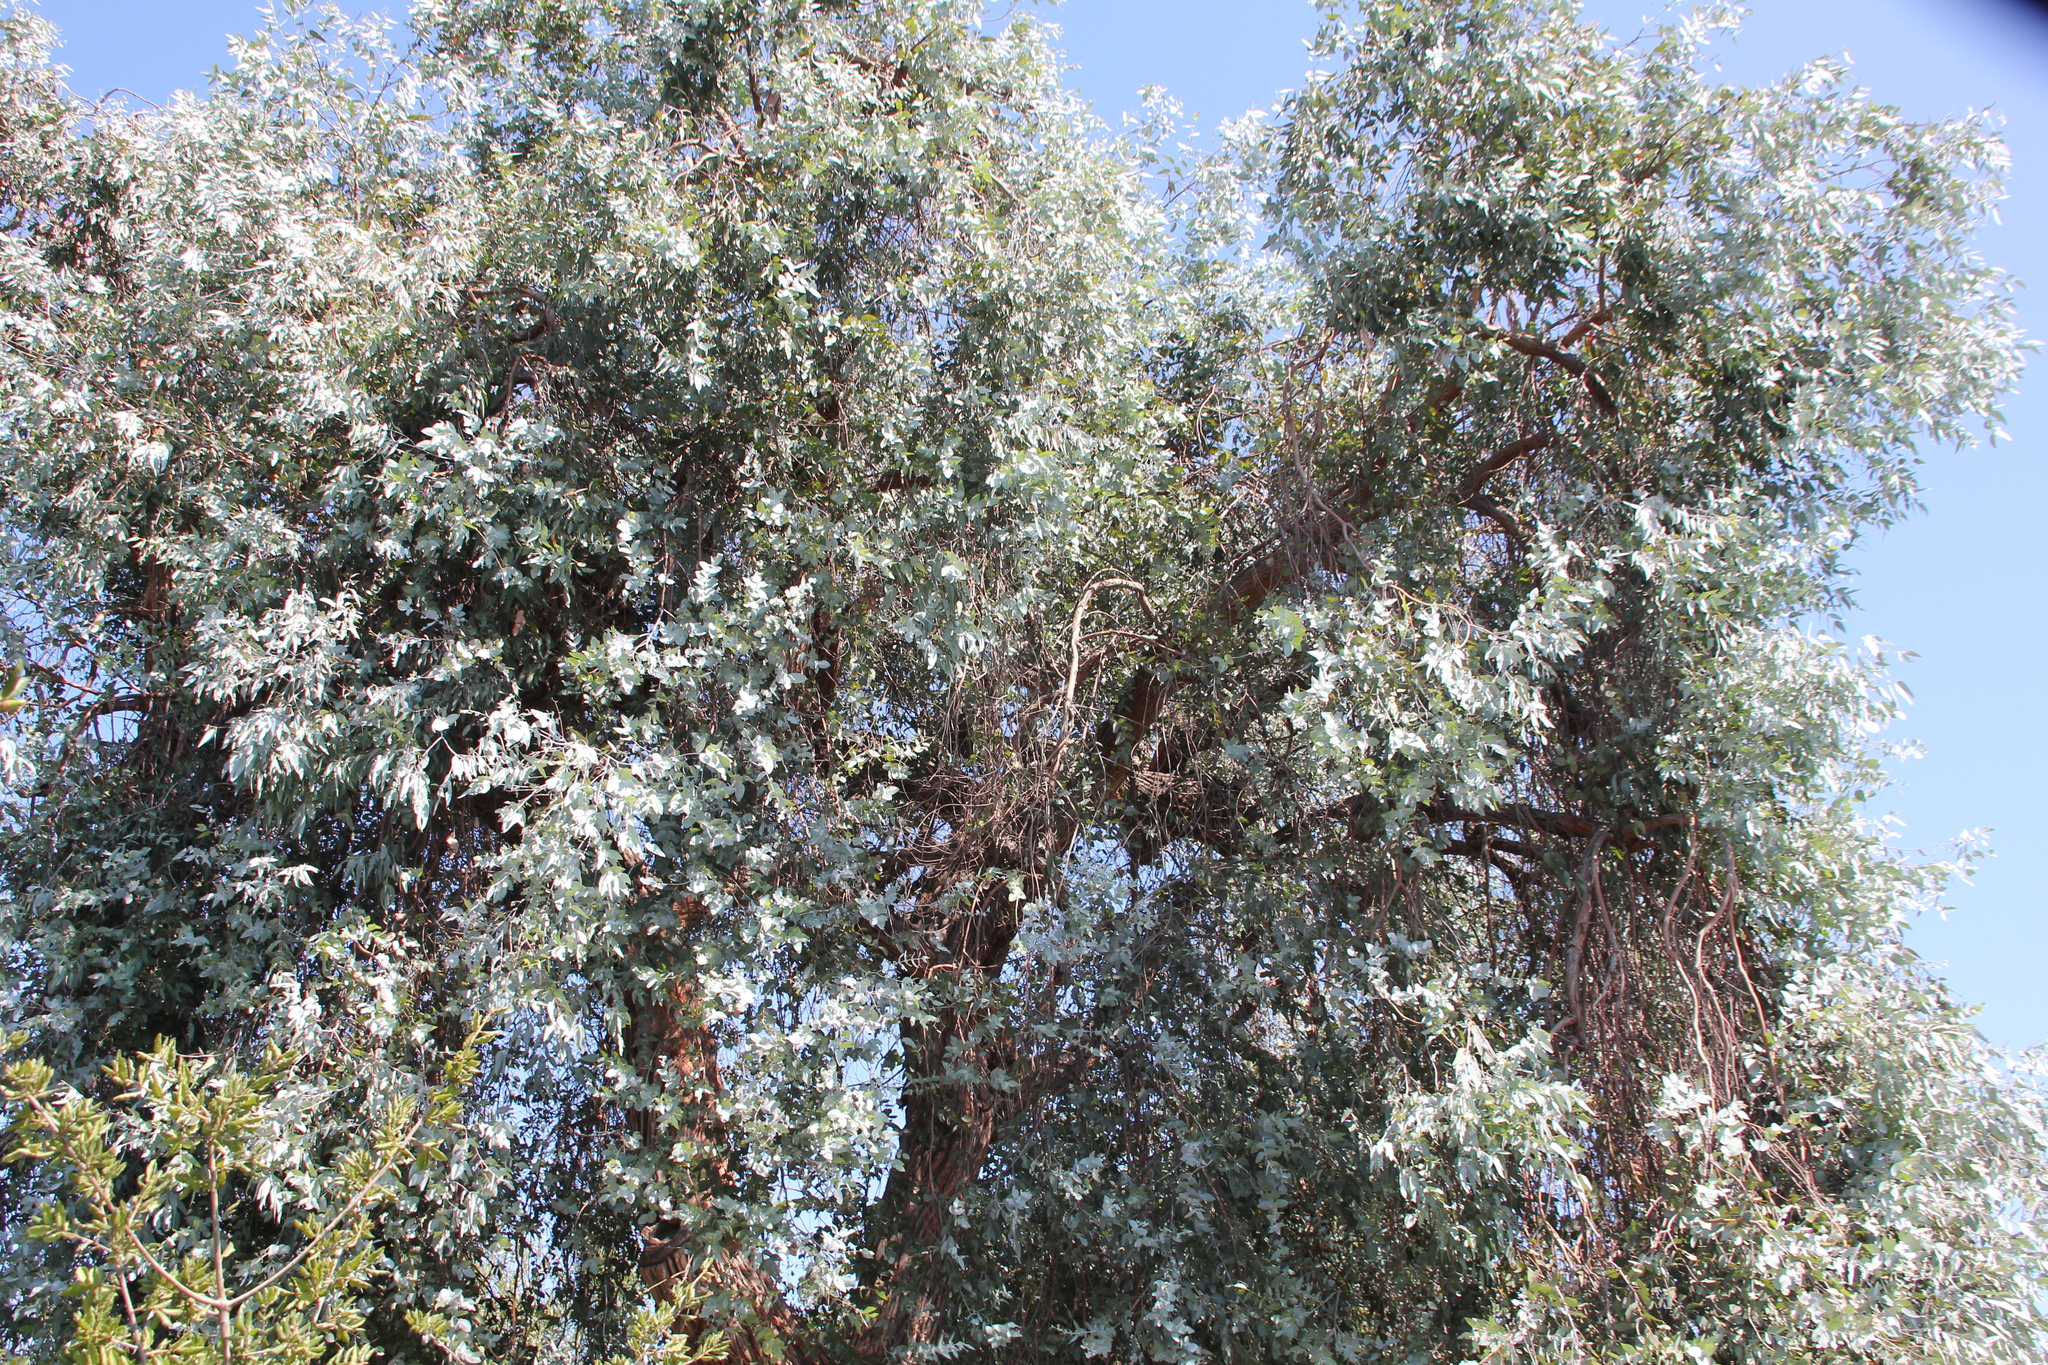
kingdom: Plantae
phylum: Tracheophyta
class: Magnoliopsida
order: Myrtales
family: Myrtaceae
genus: Eucalyptus
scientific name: Eucalyptus cinerea
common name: Argyle apple
